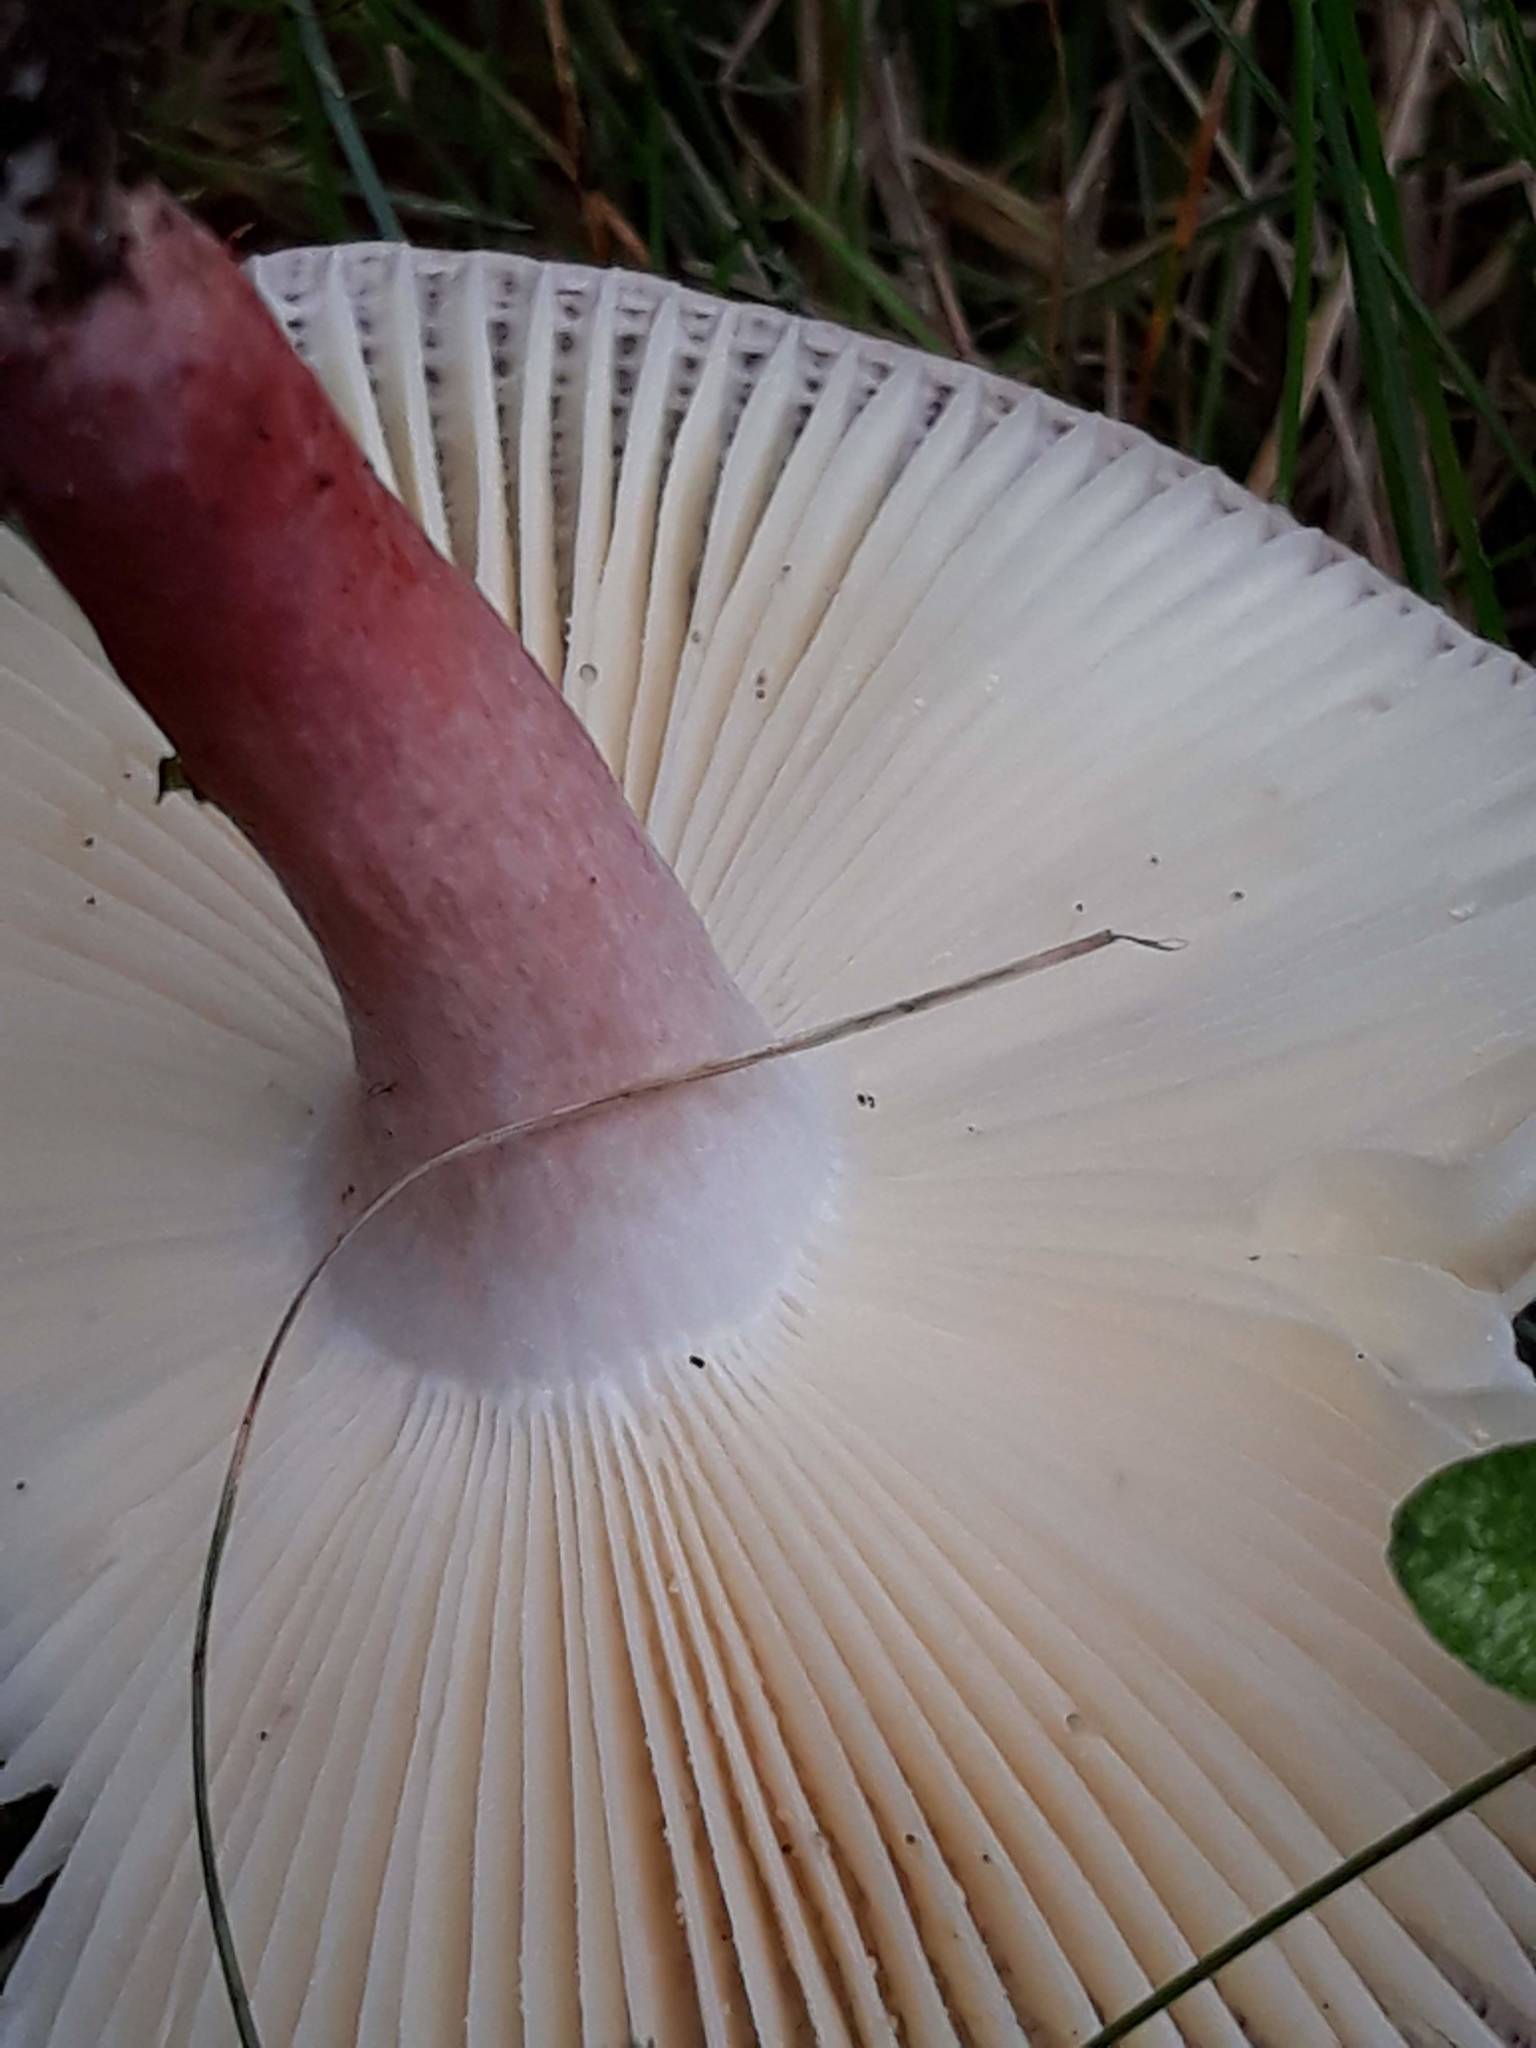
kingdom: Fungi
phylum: Basidiomycota
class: Agaricomycetes
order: Russulales
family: Russulaceae
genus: Russula
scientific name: Russula mariae
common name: Purple-bloom russula
